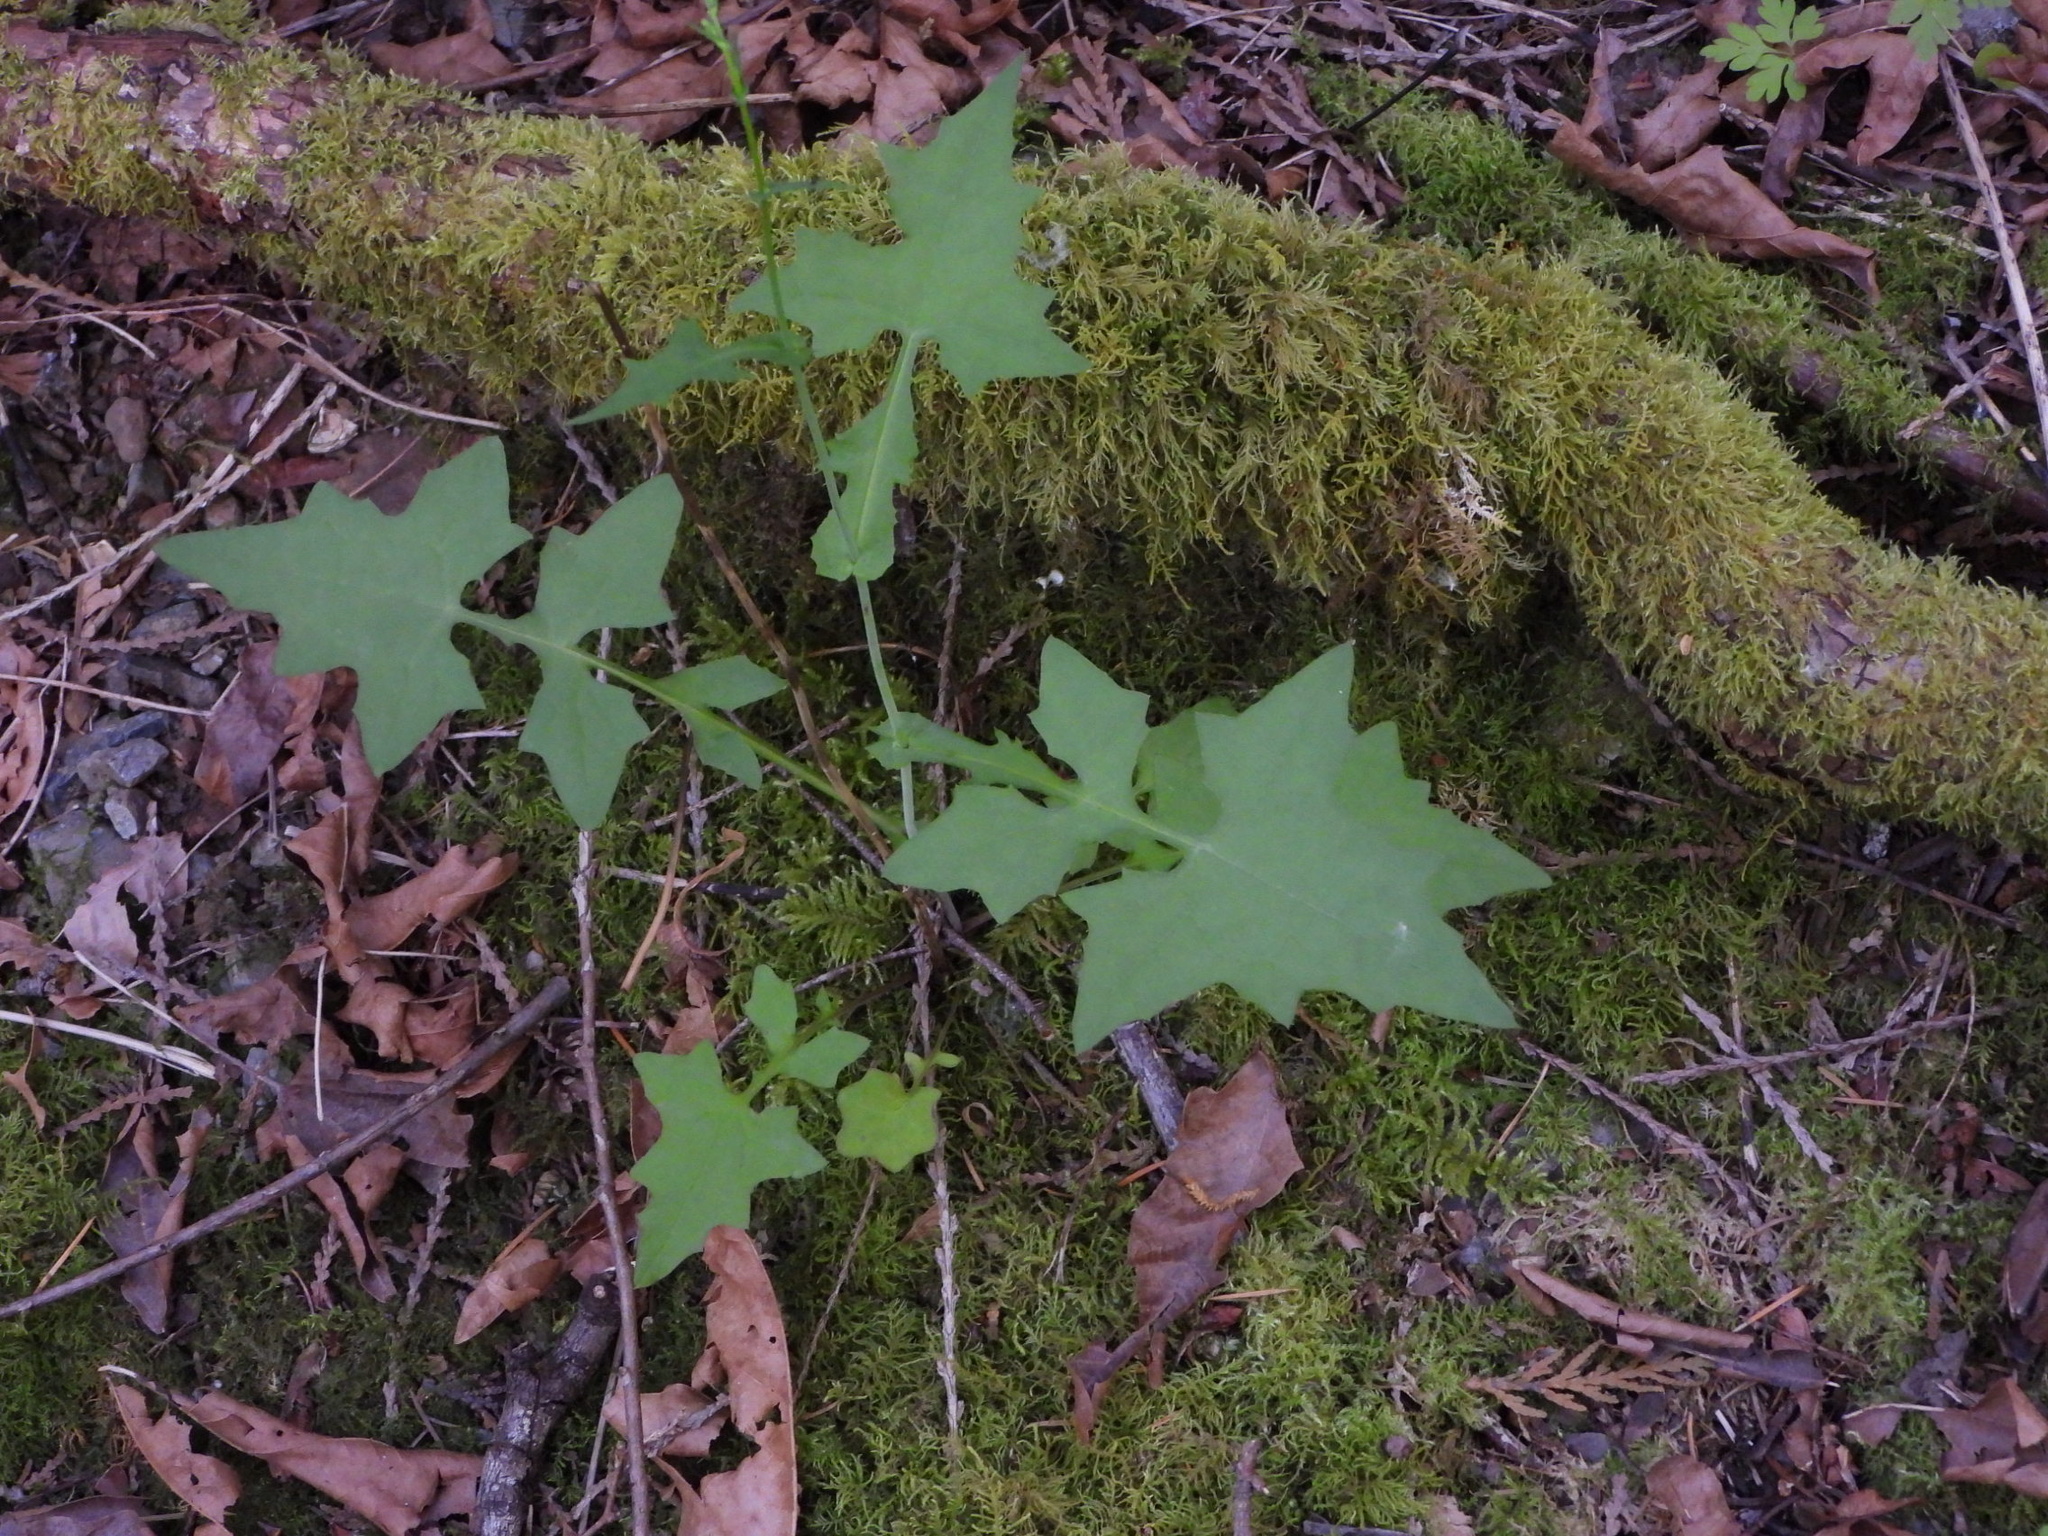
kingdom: Plantae
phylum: Tracheophyta
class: Magnoliopsida
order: Asterales
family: Asteraceae
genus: Mycelis
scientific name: Mycelis muralis
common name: Wall lettuce
